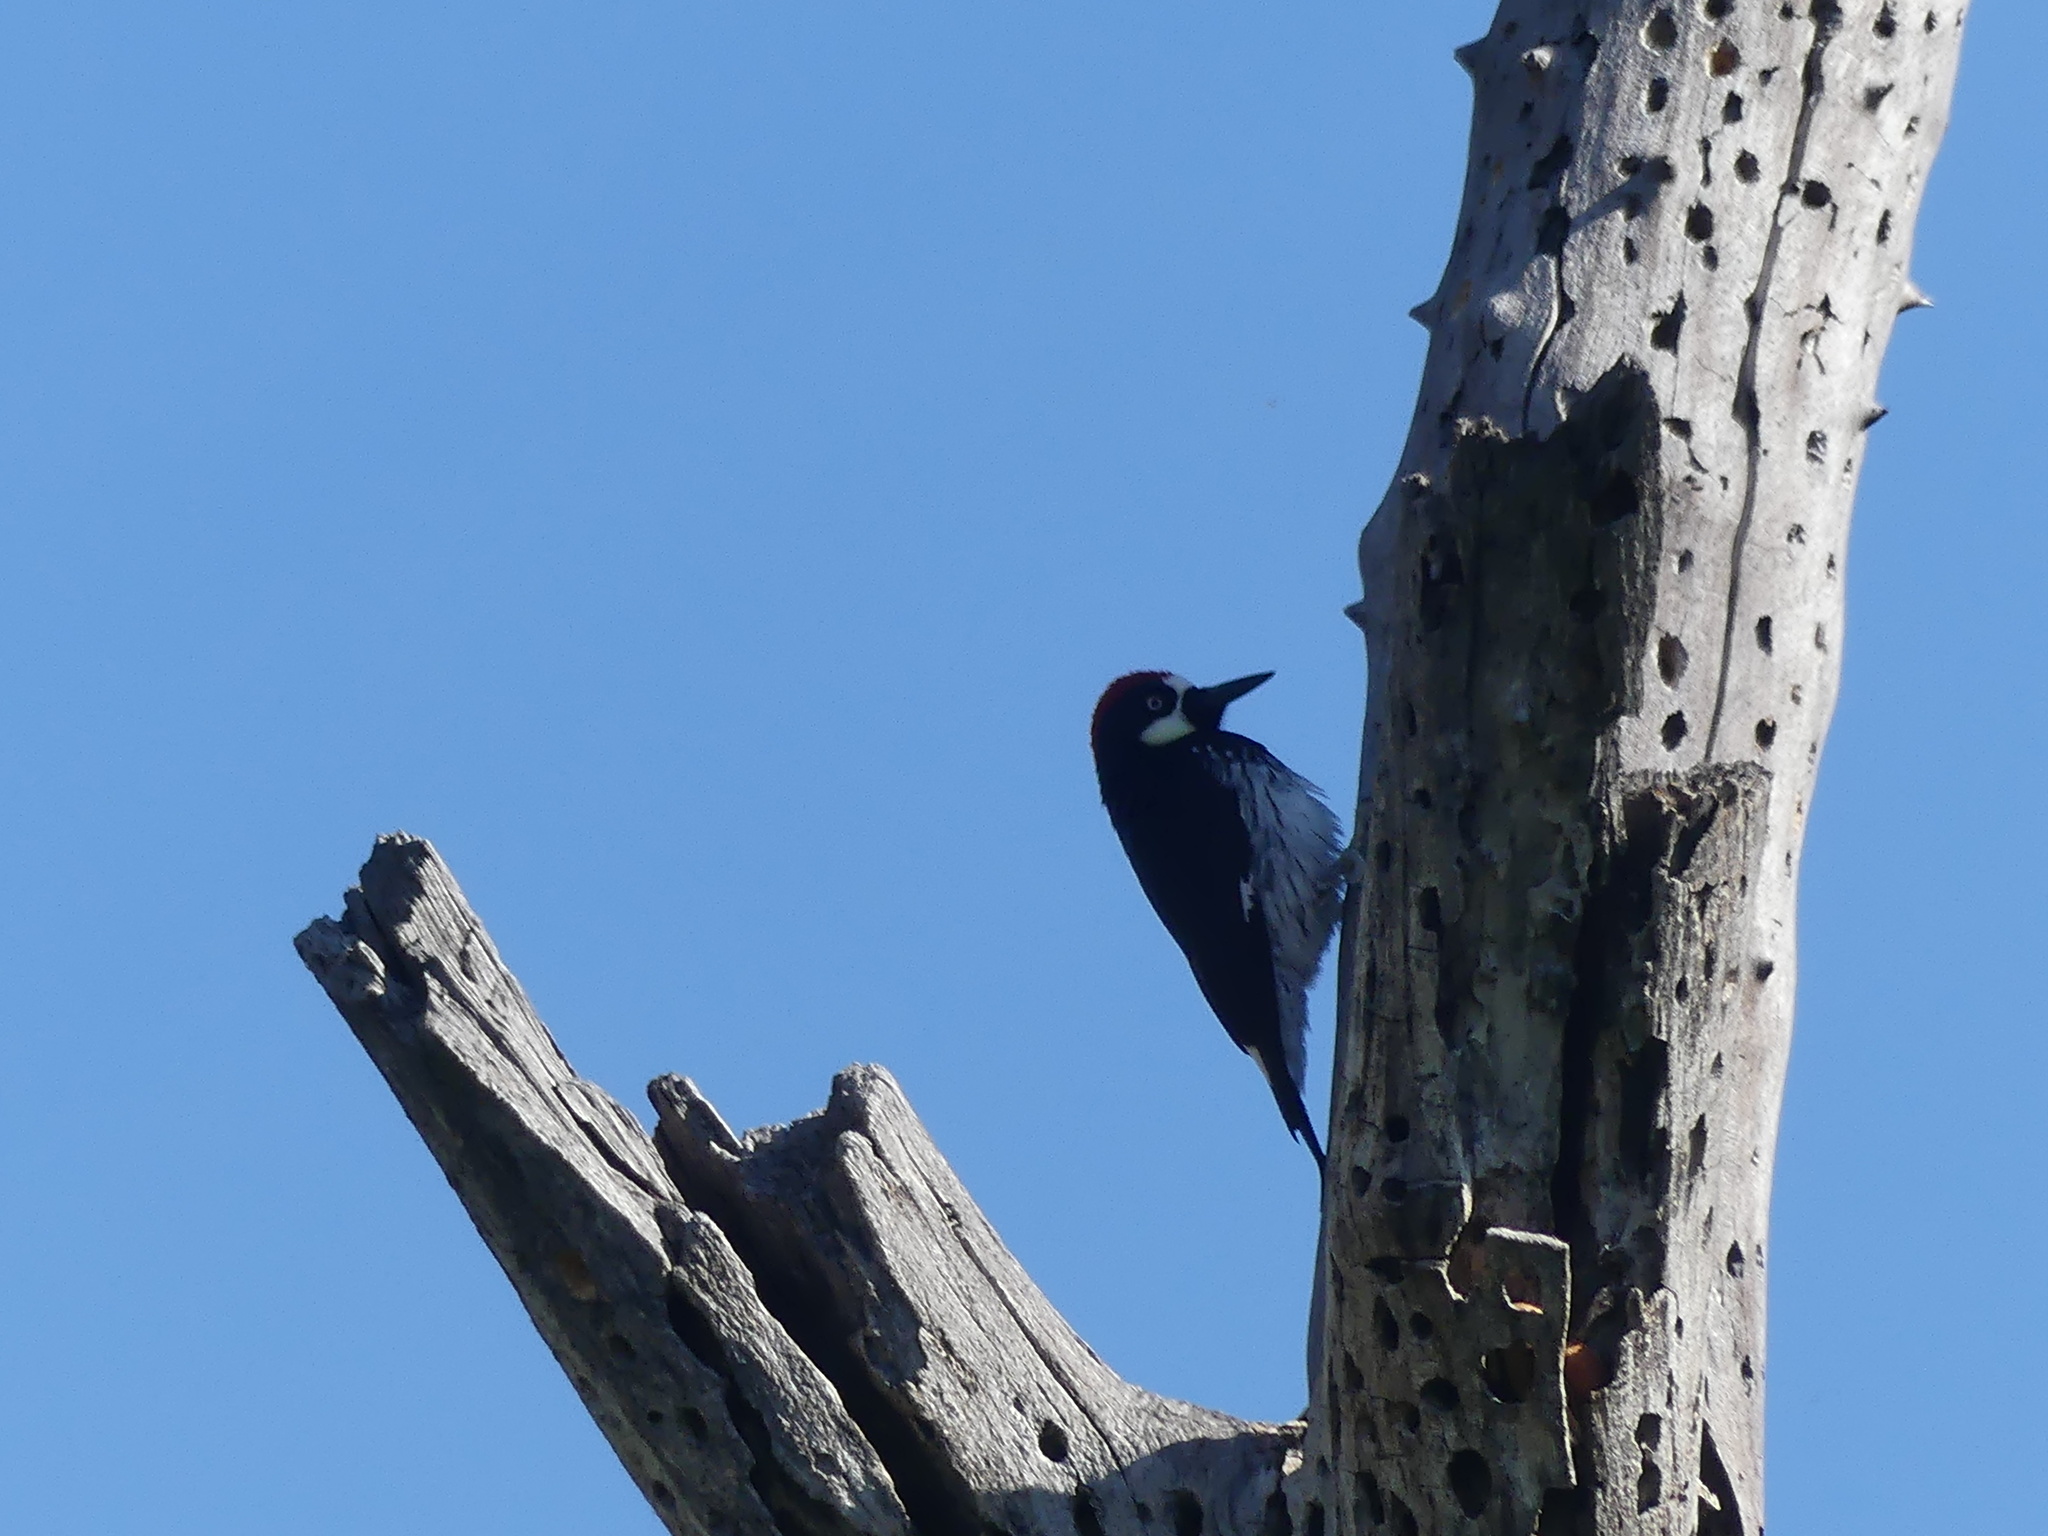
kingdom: Animalia
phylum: Chordata
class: Aves
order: Piciformes
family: Picidae
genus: Melanerpes
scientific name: Melanerpes formicivorus
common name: Acorn woodpecker
